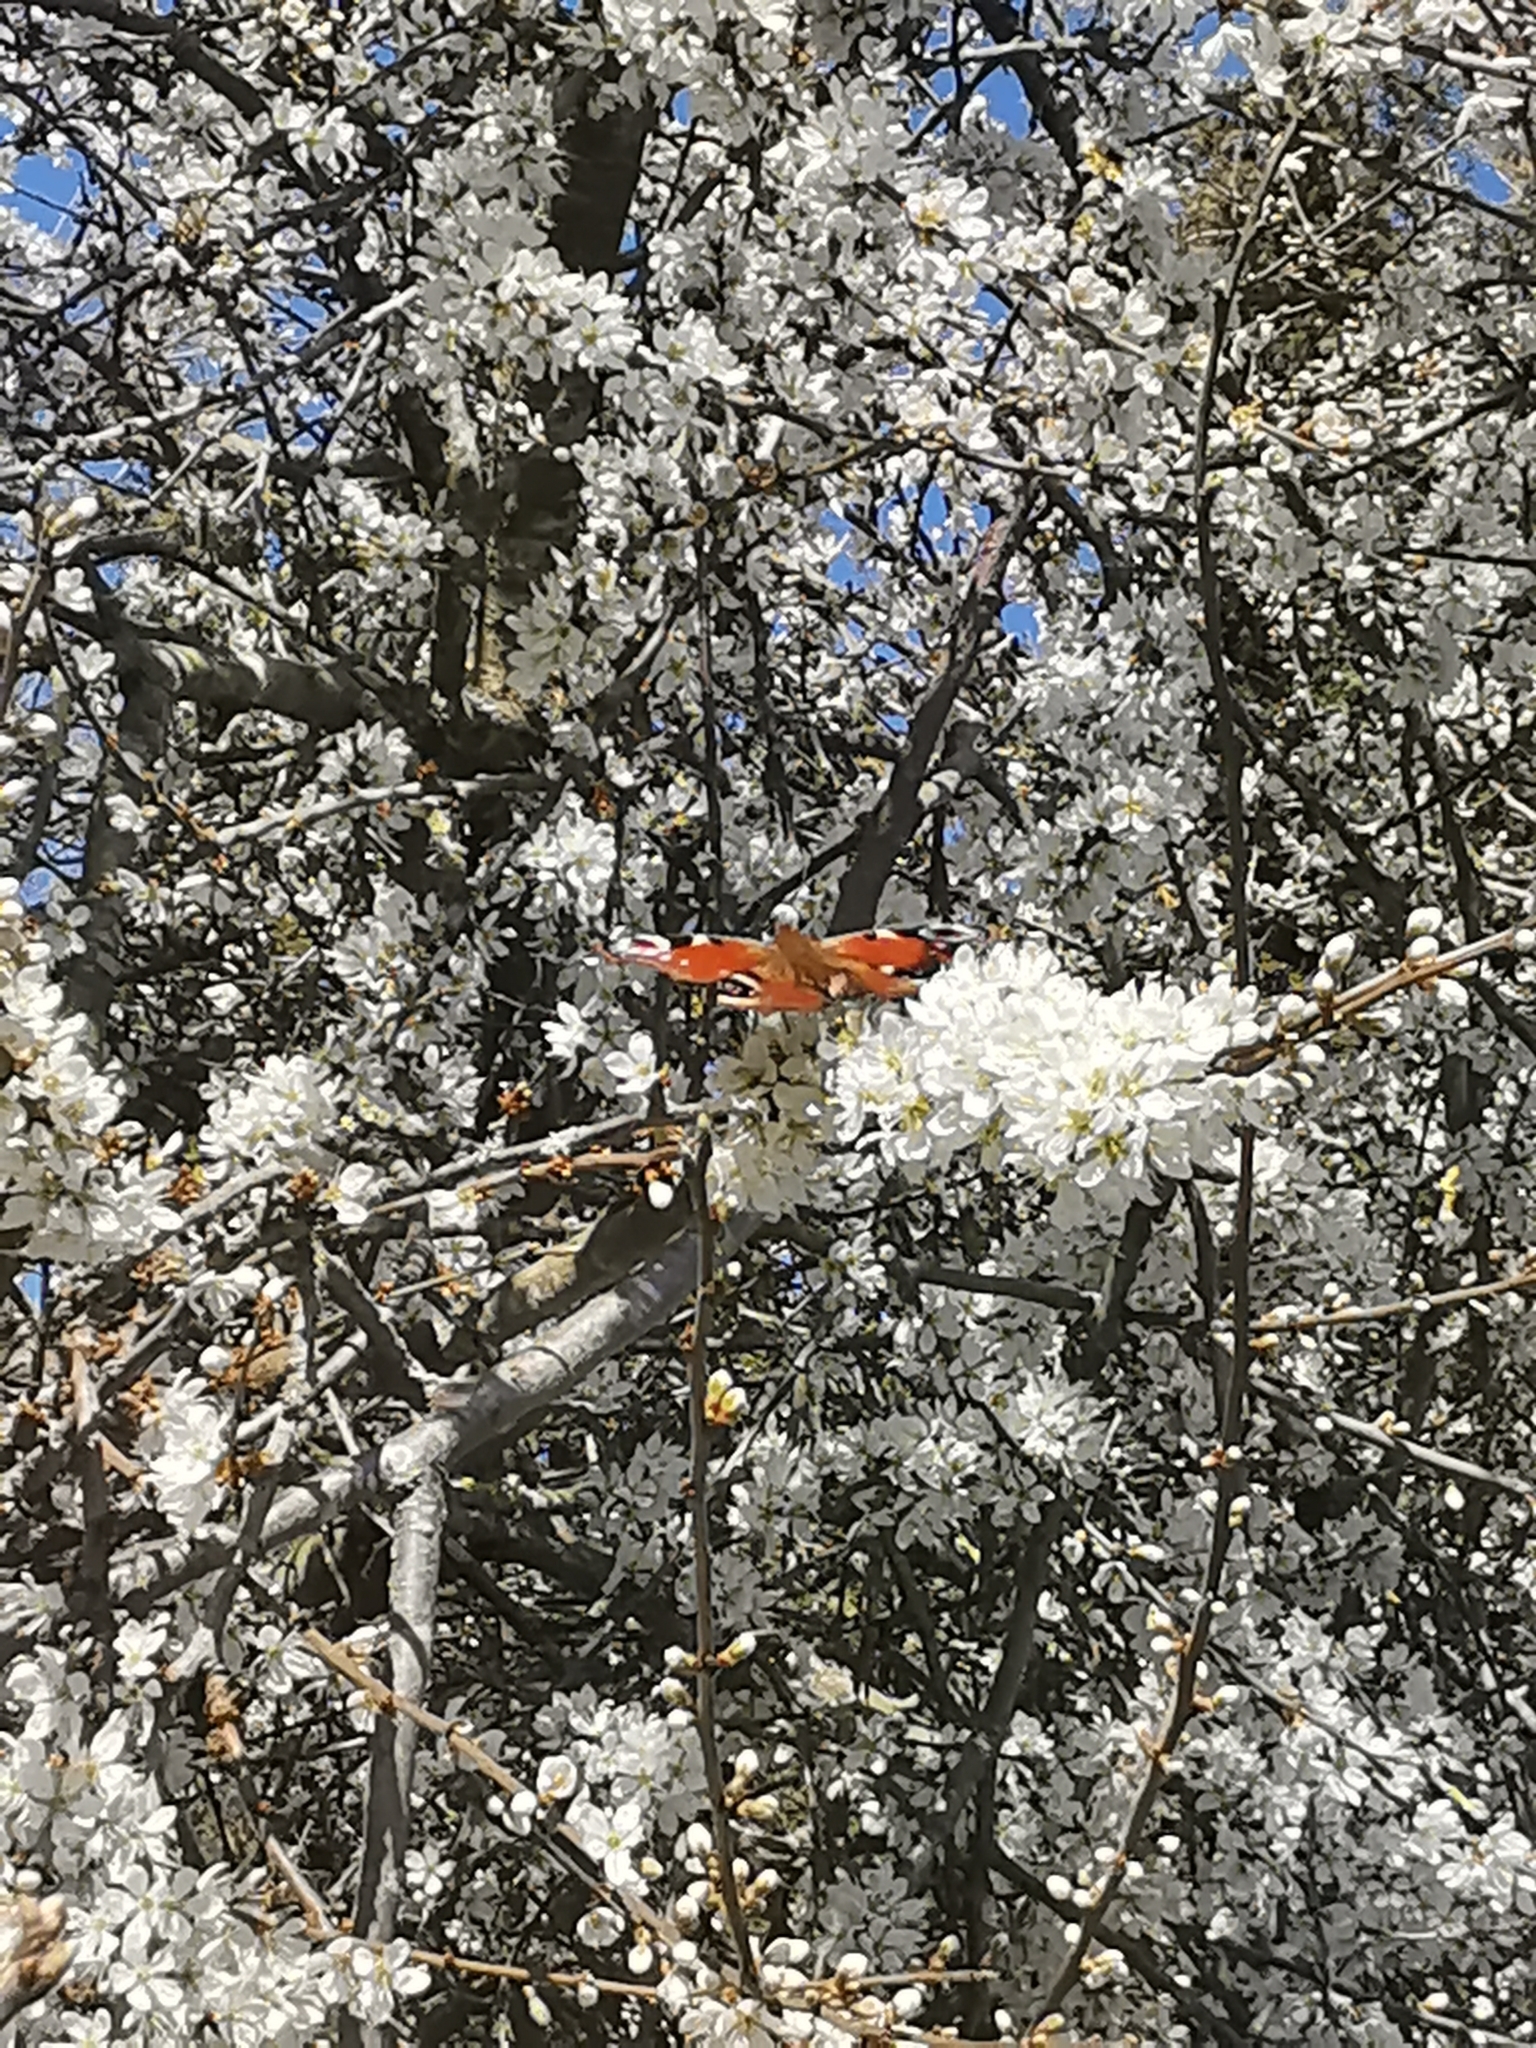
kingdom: Animalia
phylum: Arthropoda
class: Insecta
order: Lepidoptera
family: Nymphalidae
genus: Aglais
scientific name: Aglais io
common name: Peacock
